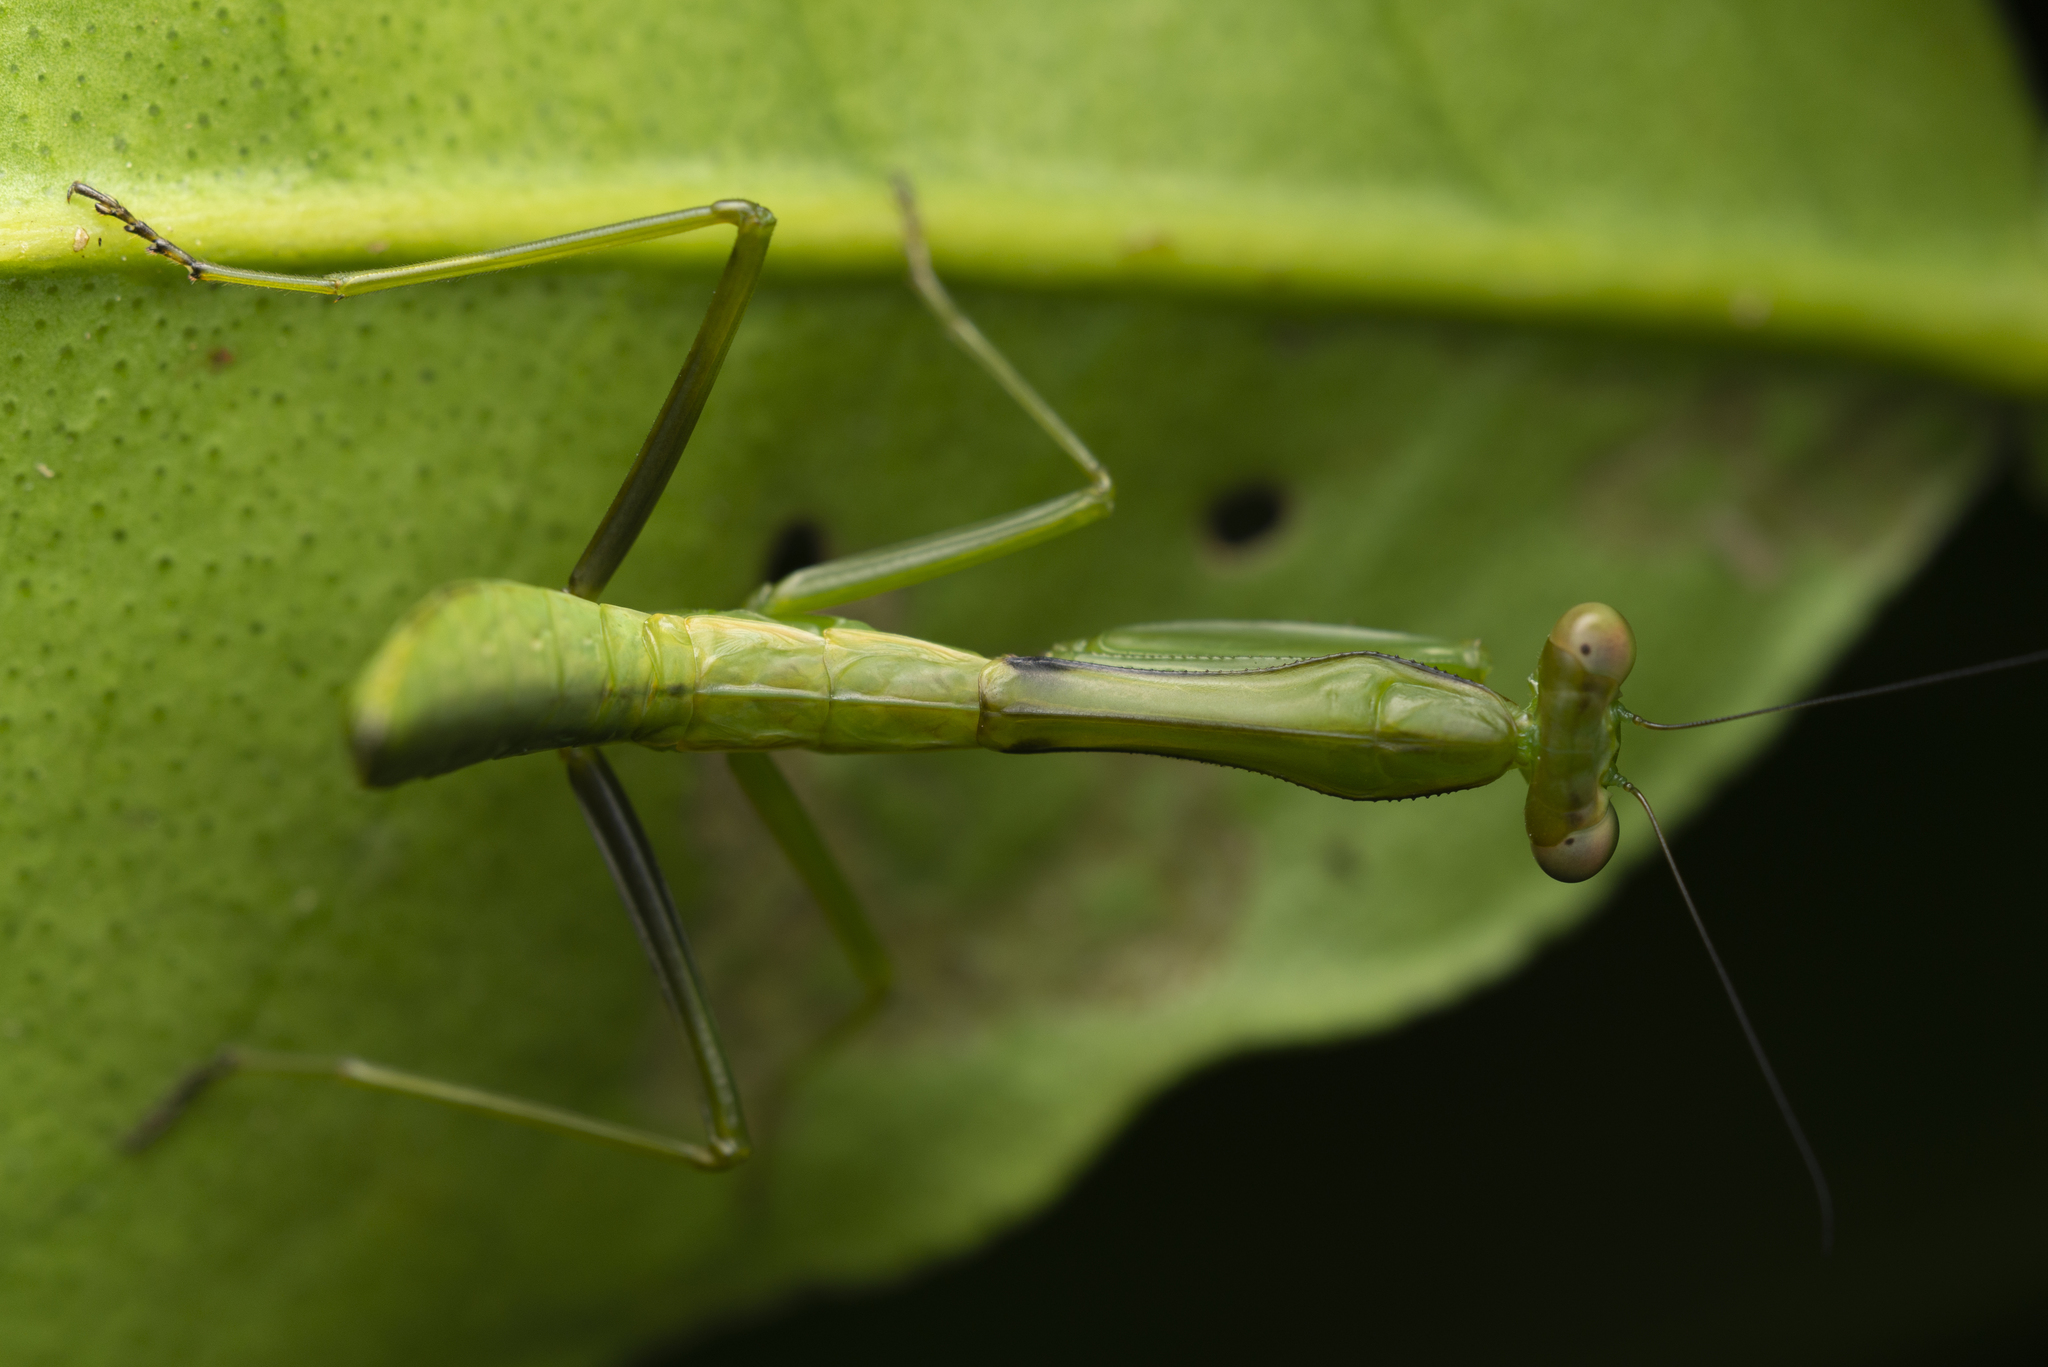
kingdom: Animalia
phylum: Arthropoda
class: Insecta
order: Mantodea
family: Mantidae
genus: Titanodula
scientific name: Titanodula formosana
